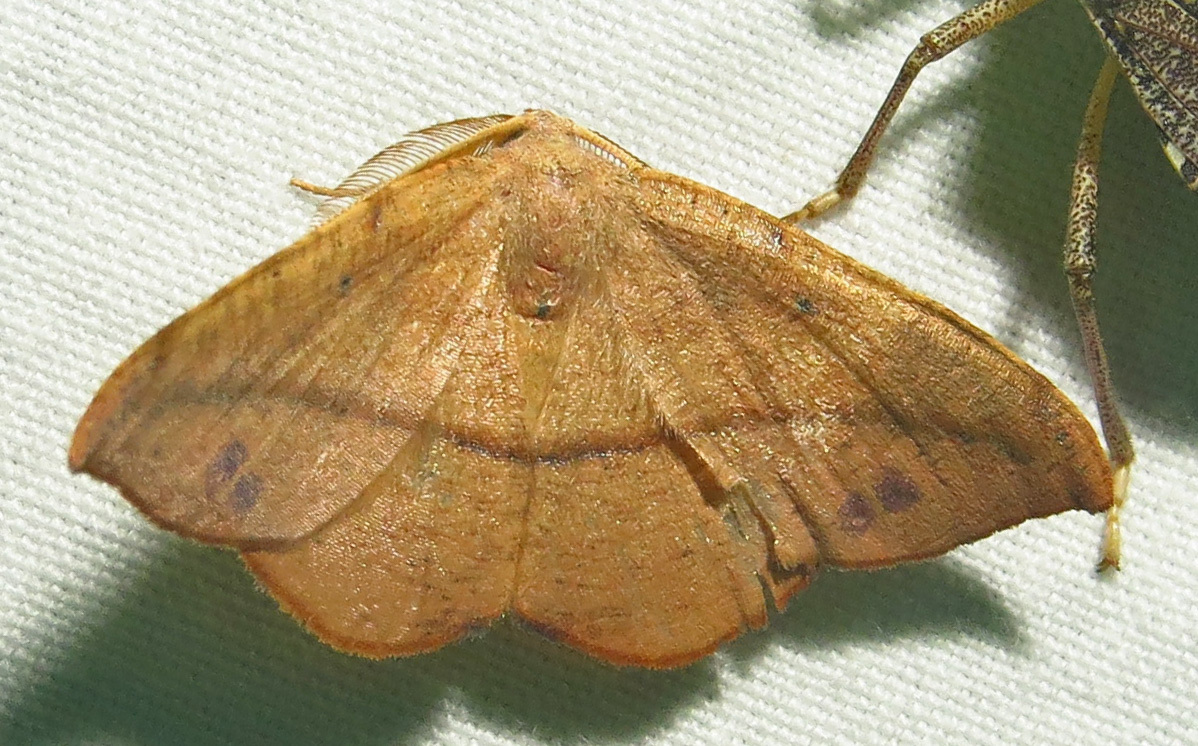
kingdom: Animalia
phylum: Arthropoda
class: Insecta
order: Lepidoptera
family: Geometridae
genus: Patalene
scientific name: Patalene olyzonaria
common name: Juniper geometer moth
